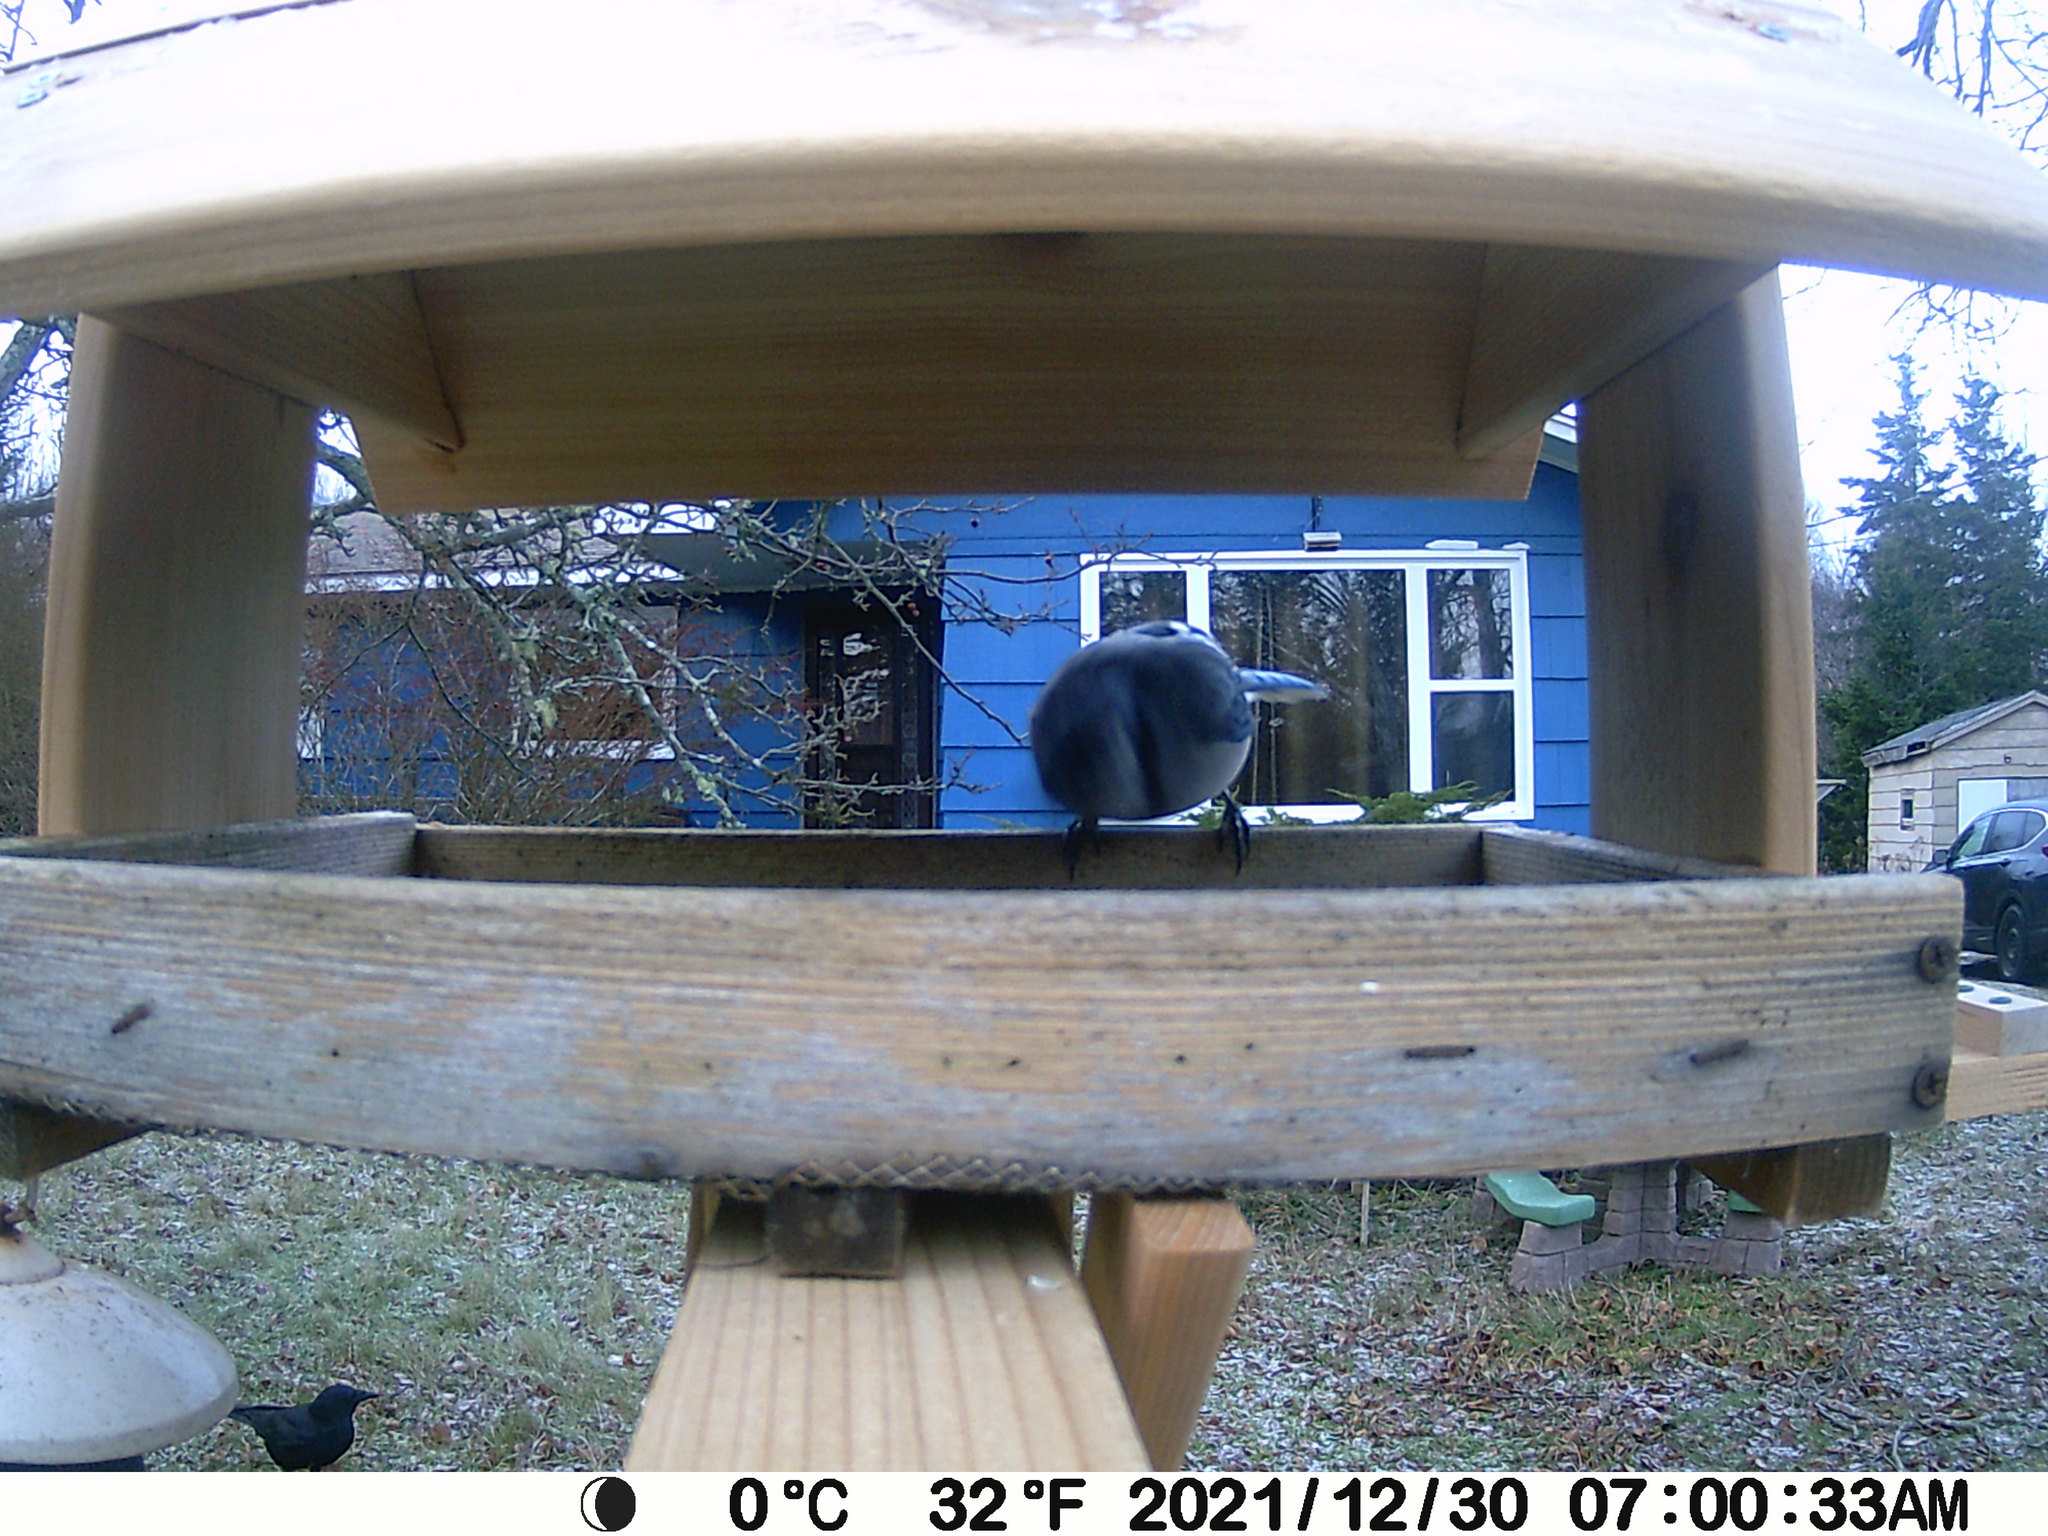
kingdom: Animalia
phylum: Chordata
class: Aves
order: Passeriformes
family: Corvidae
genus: Corvus
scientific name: Corvus brachyrhynchos
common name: American crow
